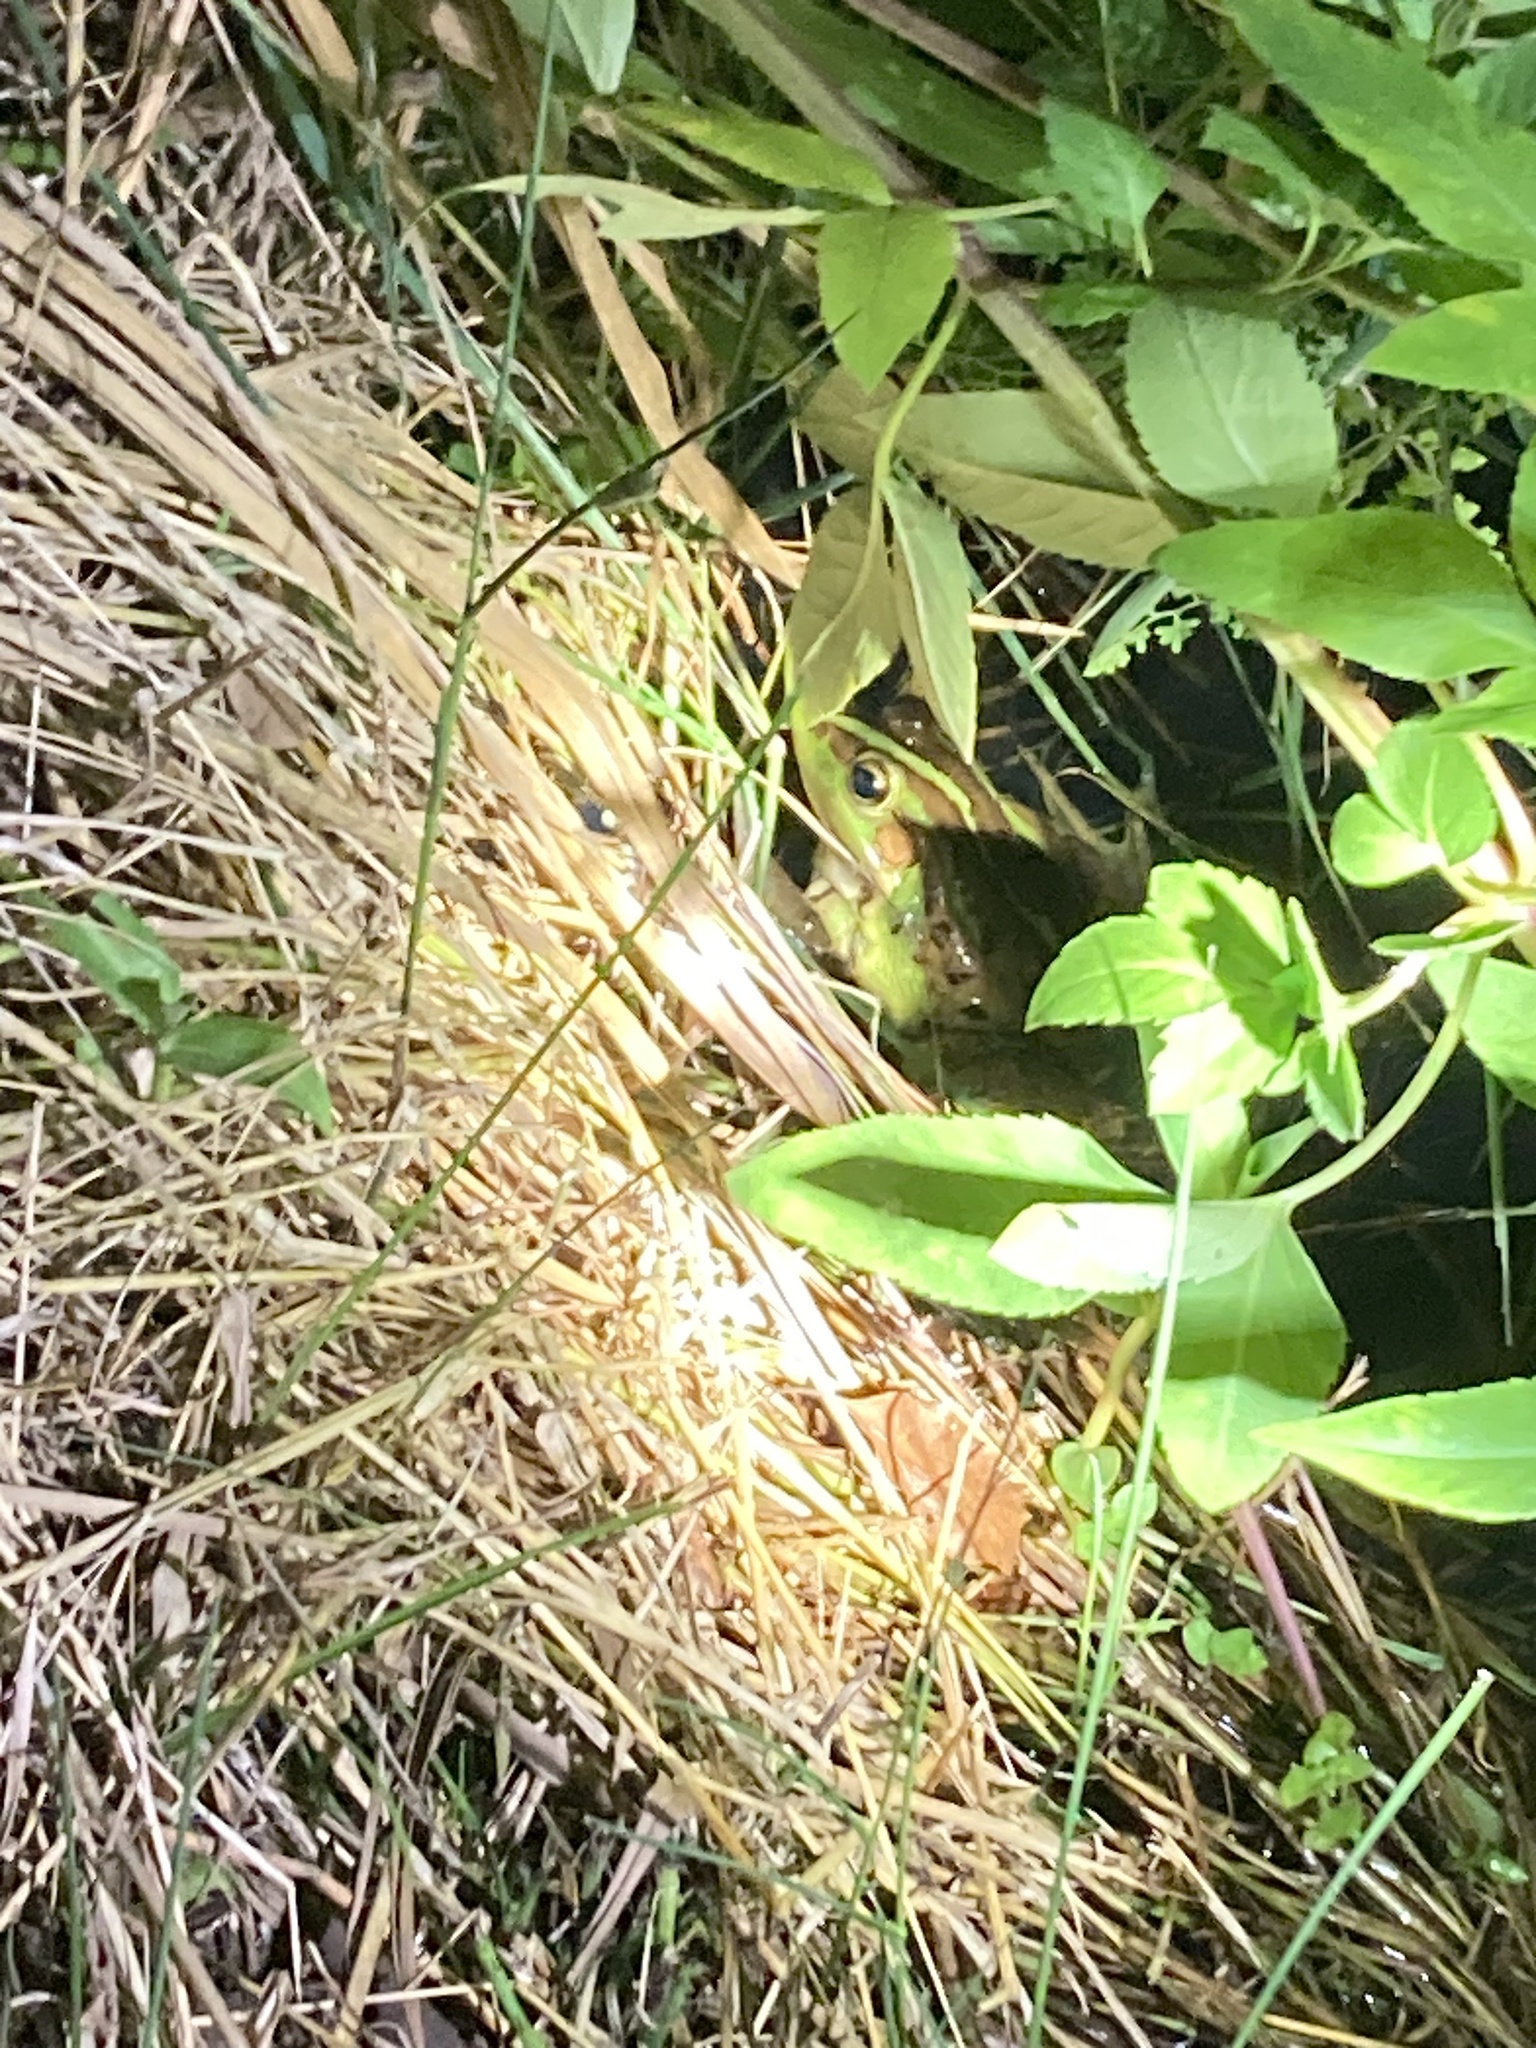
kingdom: Animalia
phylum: Chordata
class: Amphibia
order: Anura
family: Ranidae
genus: Pelophylax
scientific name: Pelophylax fukienensis
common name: Fukien gold-striped pond frog
